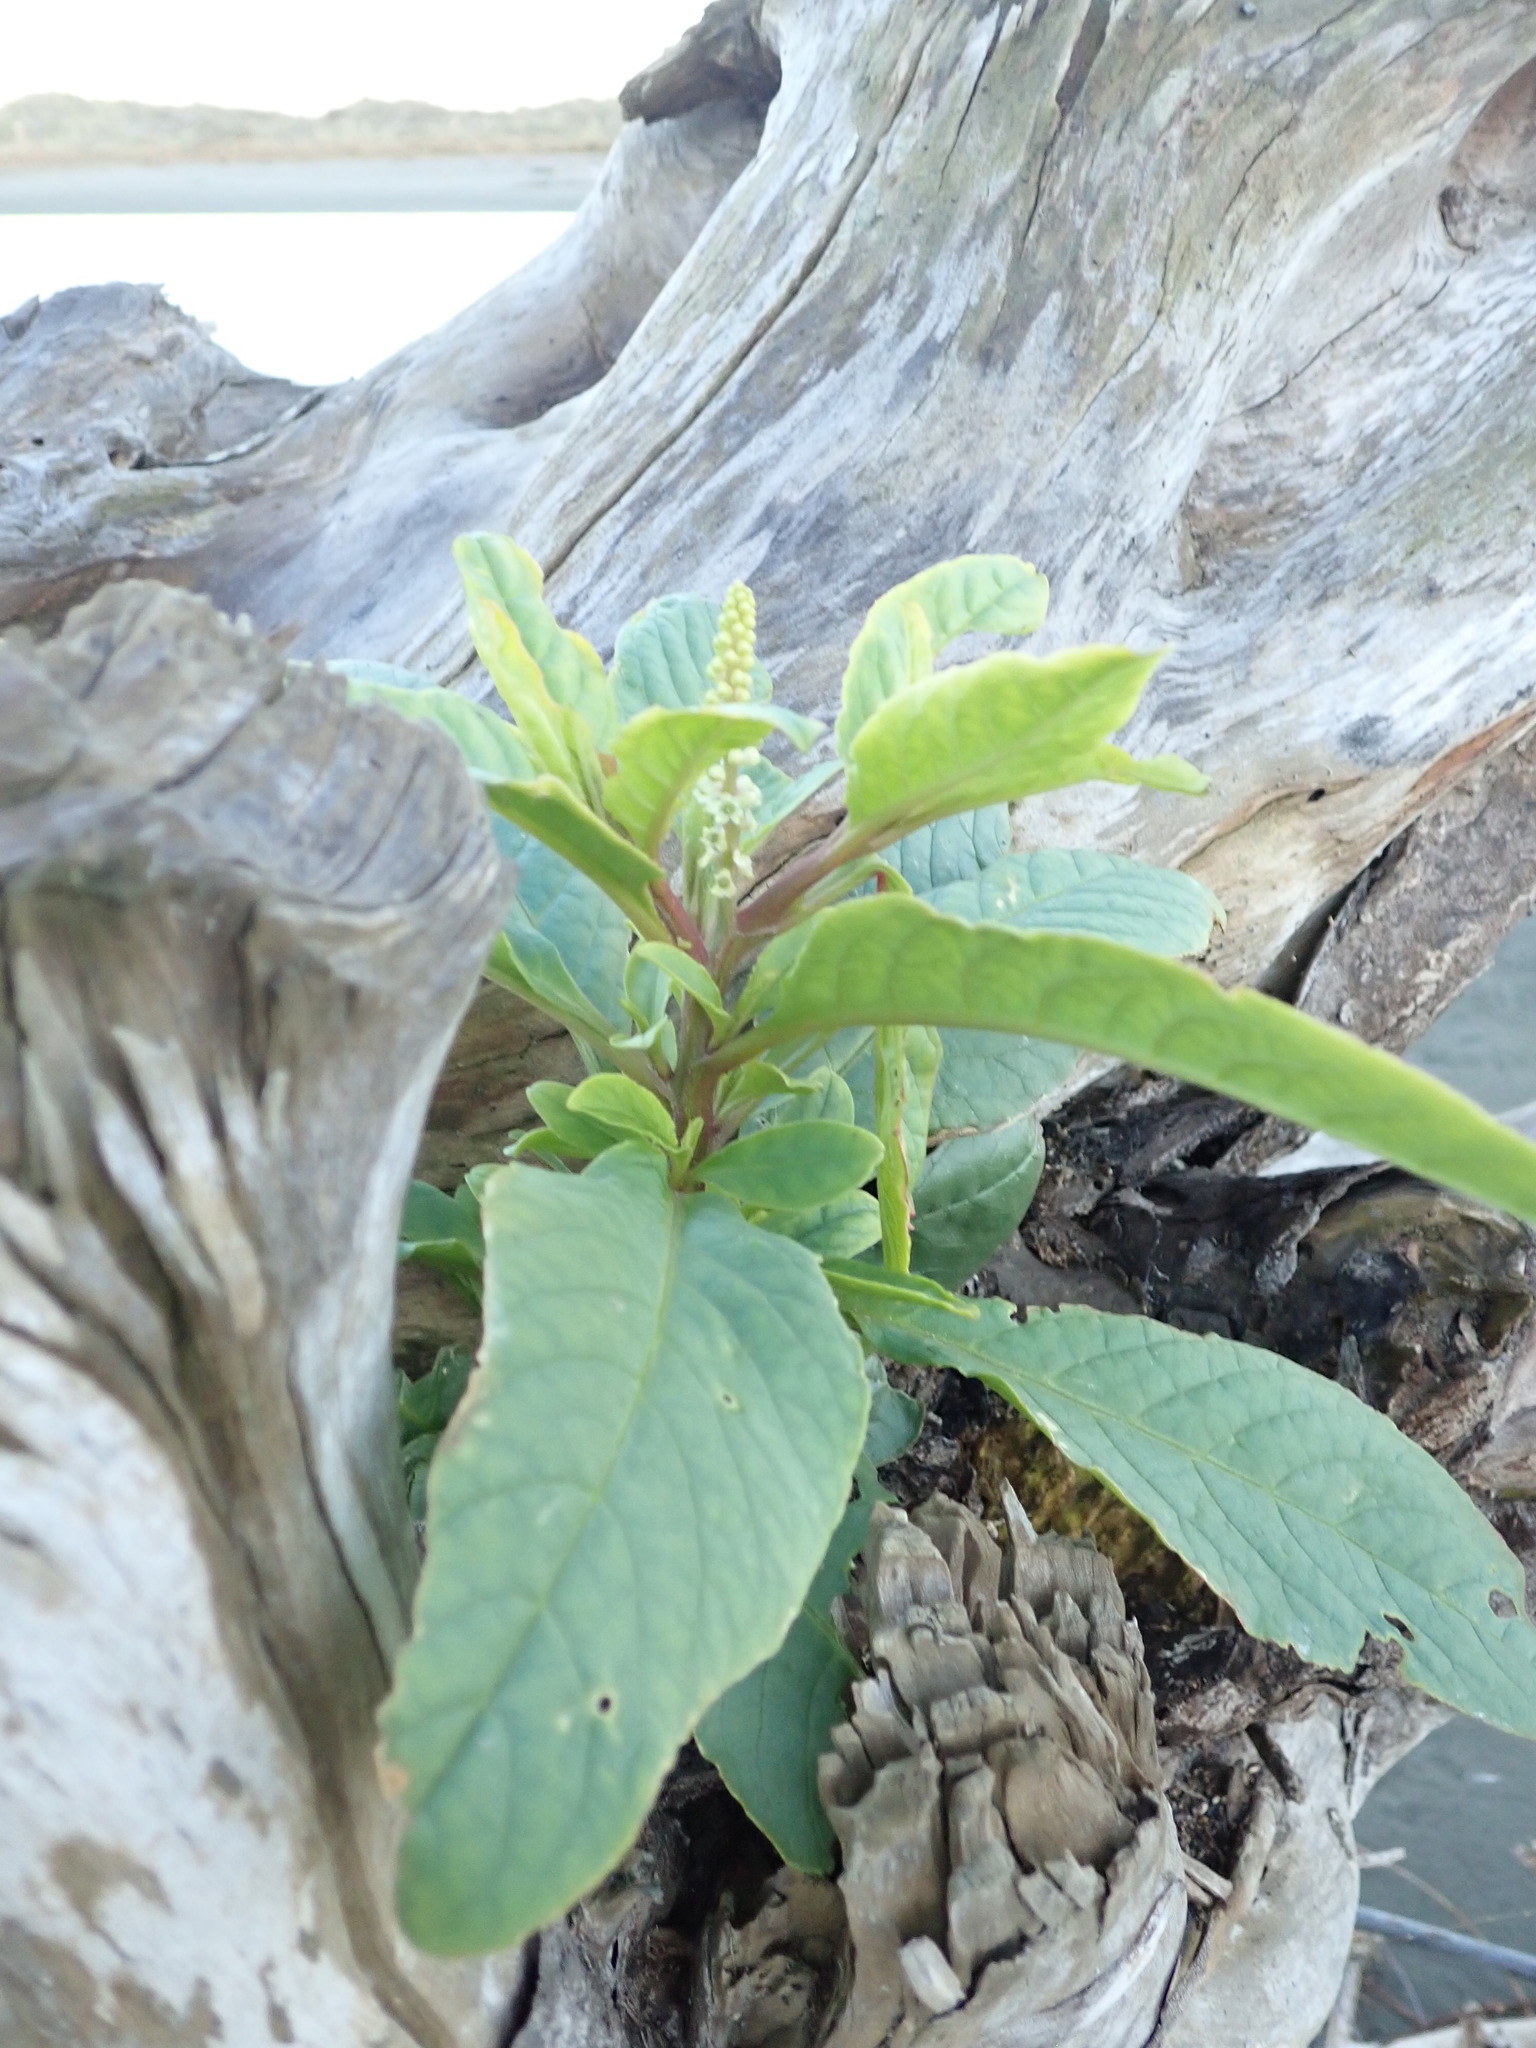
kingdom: Plantae
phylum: Tracheophyta
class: Magnoliopsida
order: Caryophyllales
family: Phytolaccaceae
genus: Phytolacca
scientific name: Phytolacca icosandra
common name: Button pokeweed
